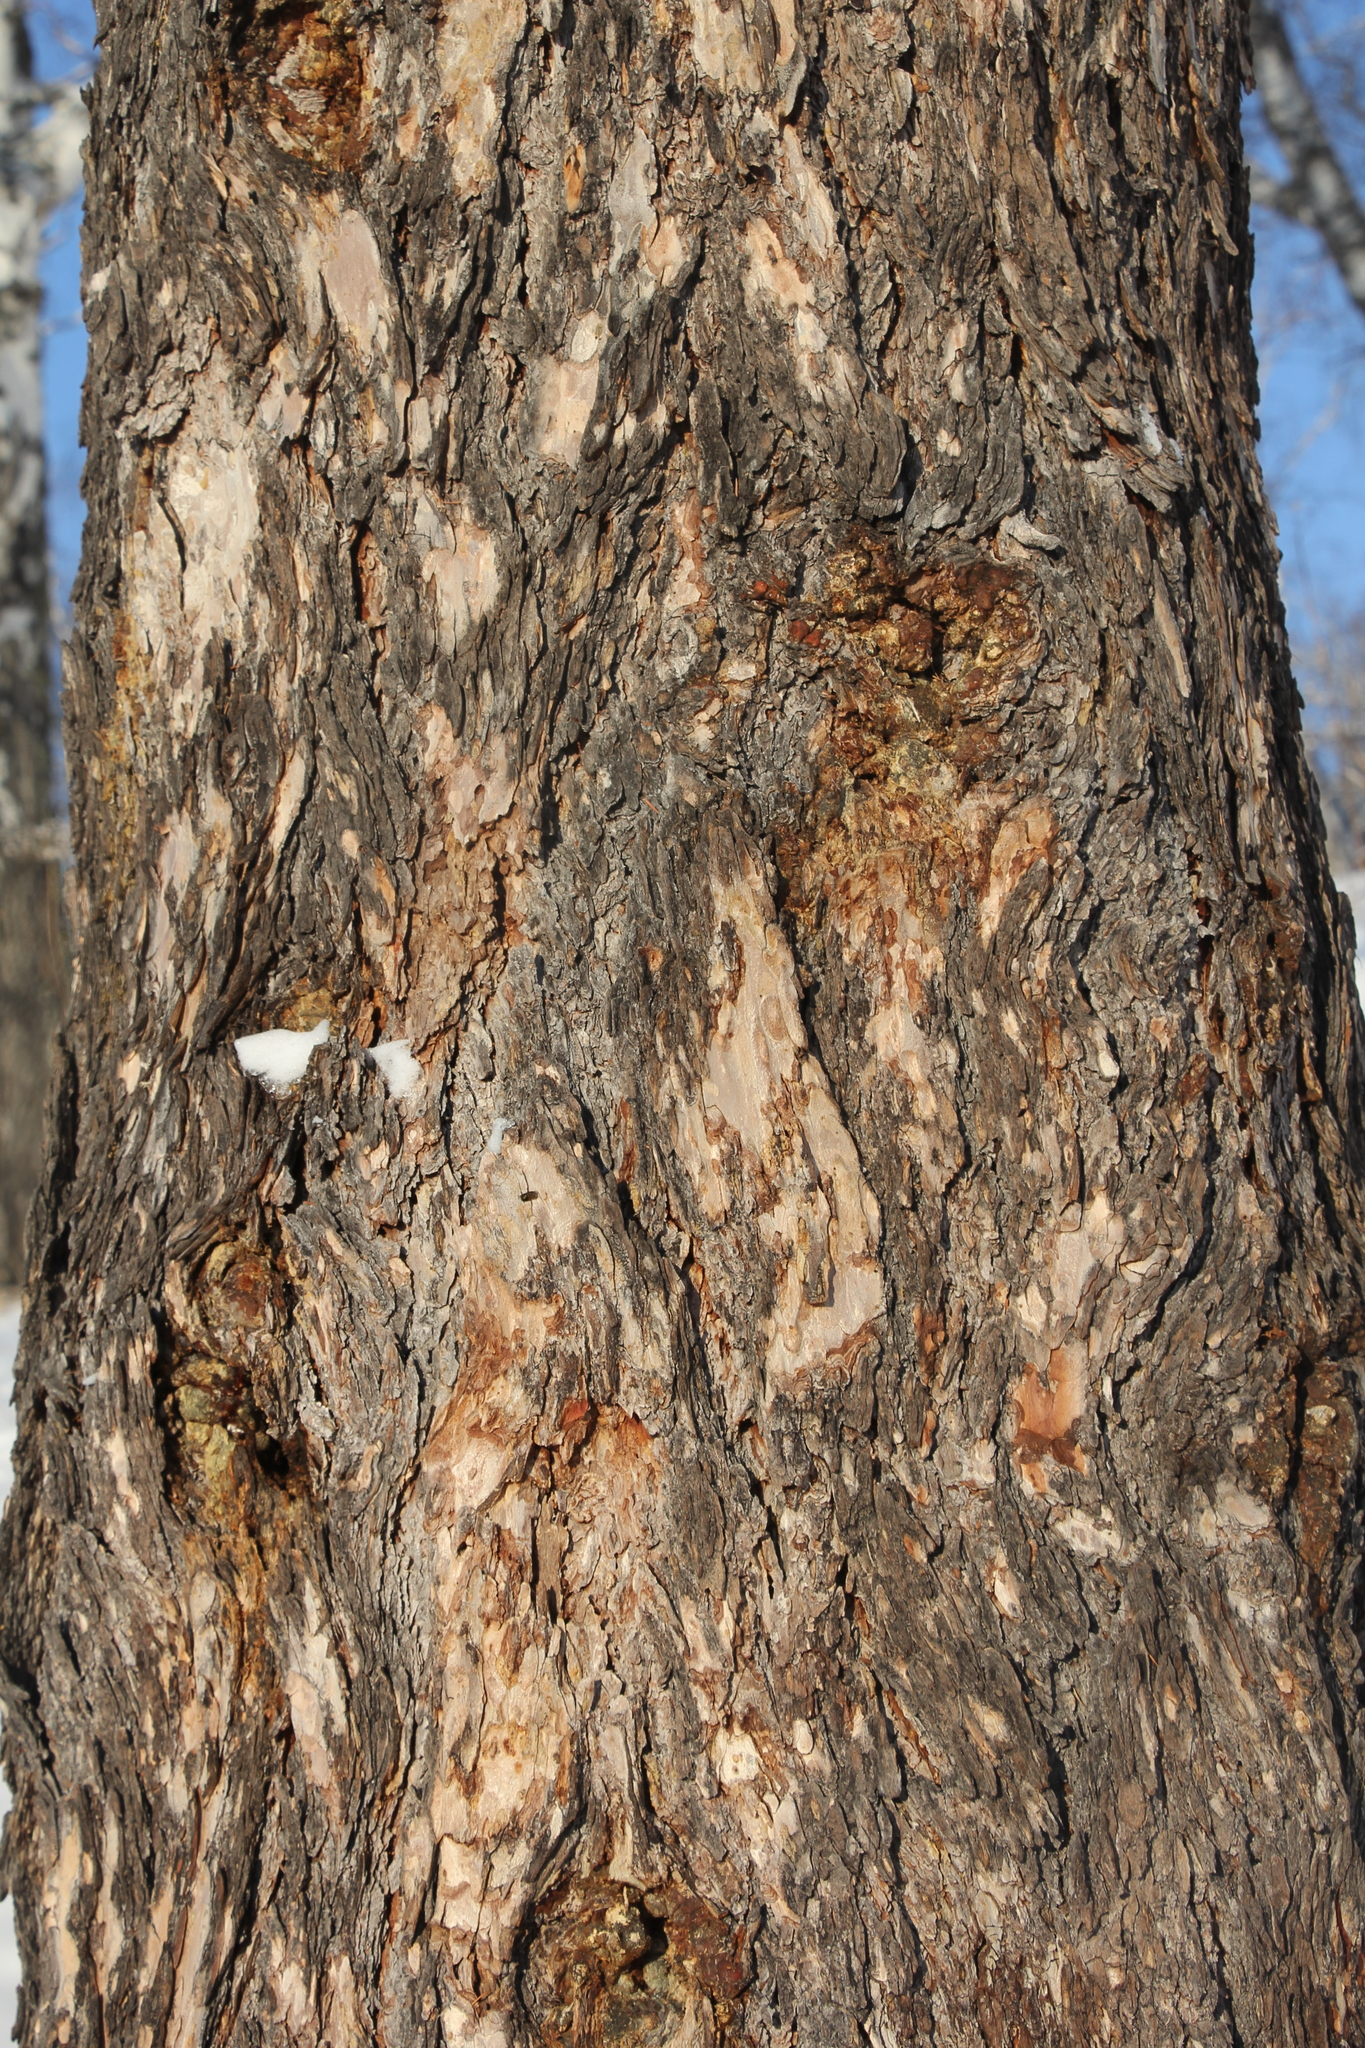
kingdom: Plantae
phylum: Tracheophyta
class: Pinopsida
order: Pinales
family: Pinaceae
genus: Larix
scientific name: Larix sibirica
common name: Siberian larch
